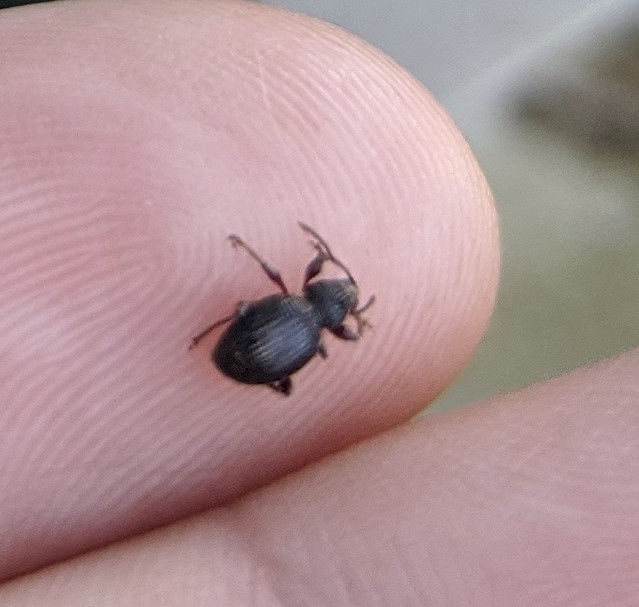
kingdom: Animalia
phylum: Arthropoda
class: Insecta
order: Coleoptera
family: Curculionidae
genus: Otiorhynchus
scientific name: Otiorhynchus ovatus
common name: Strawberry root weevil
